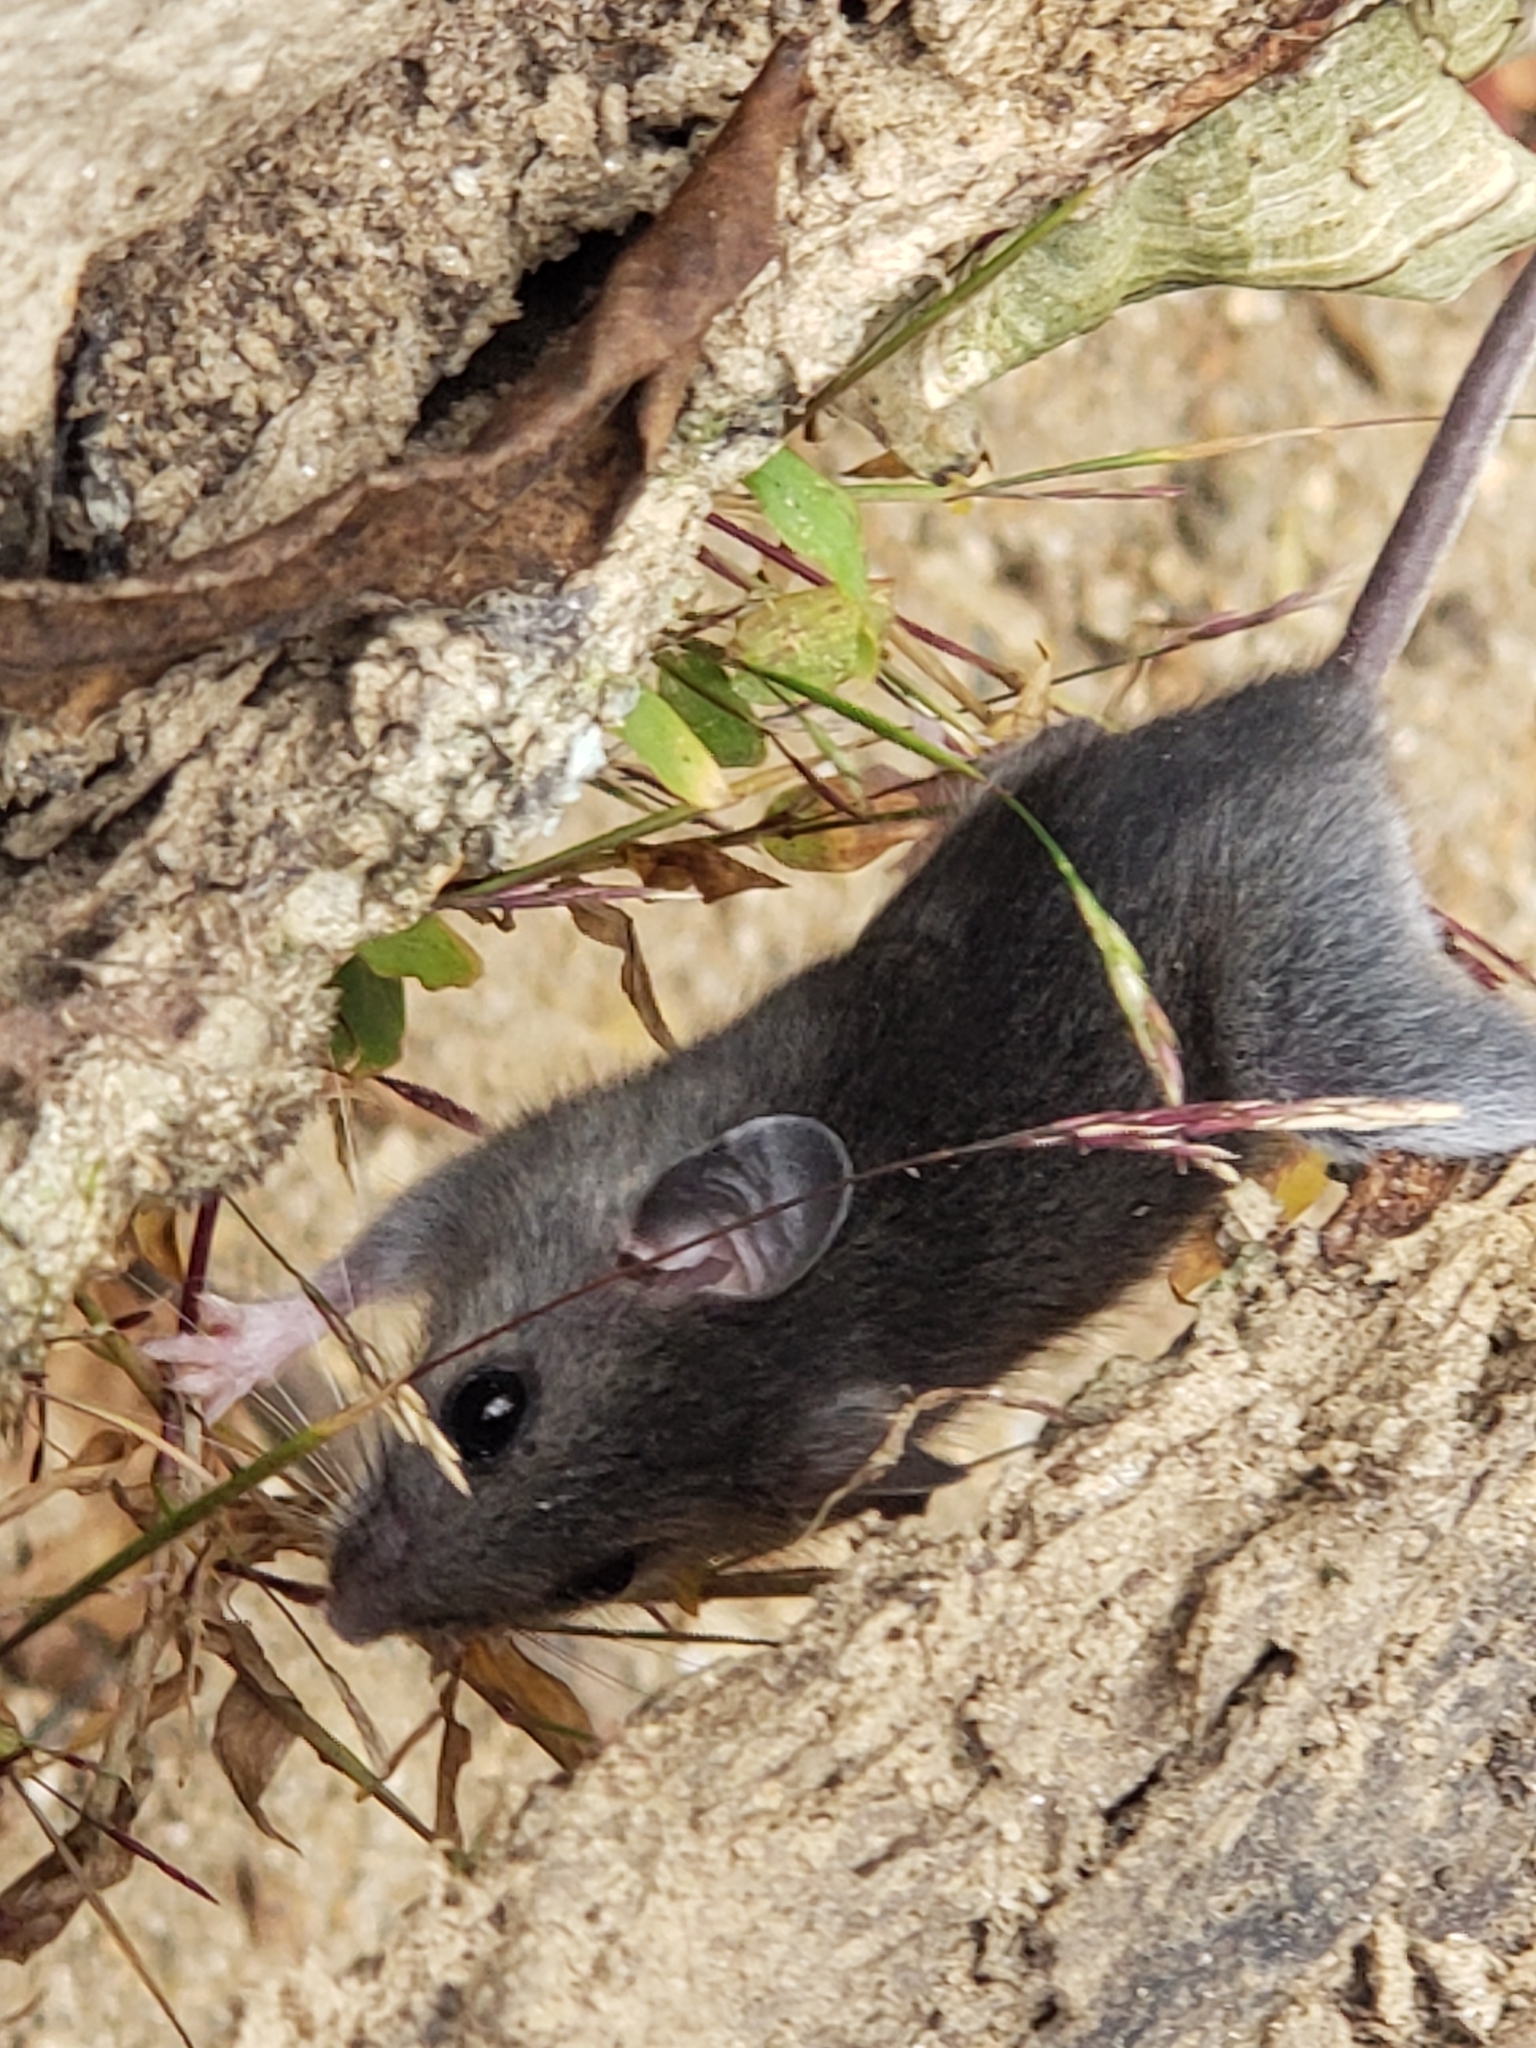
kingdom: Animalia
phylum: Chordata
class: Mammalia
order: Rodentia
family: Cricetidae
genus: Peromyscus
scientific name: Peromyscus leucopus
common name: White-footed deermouse
